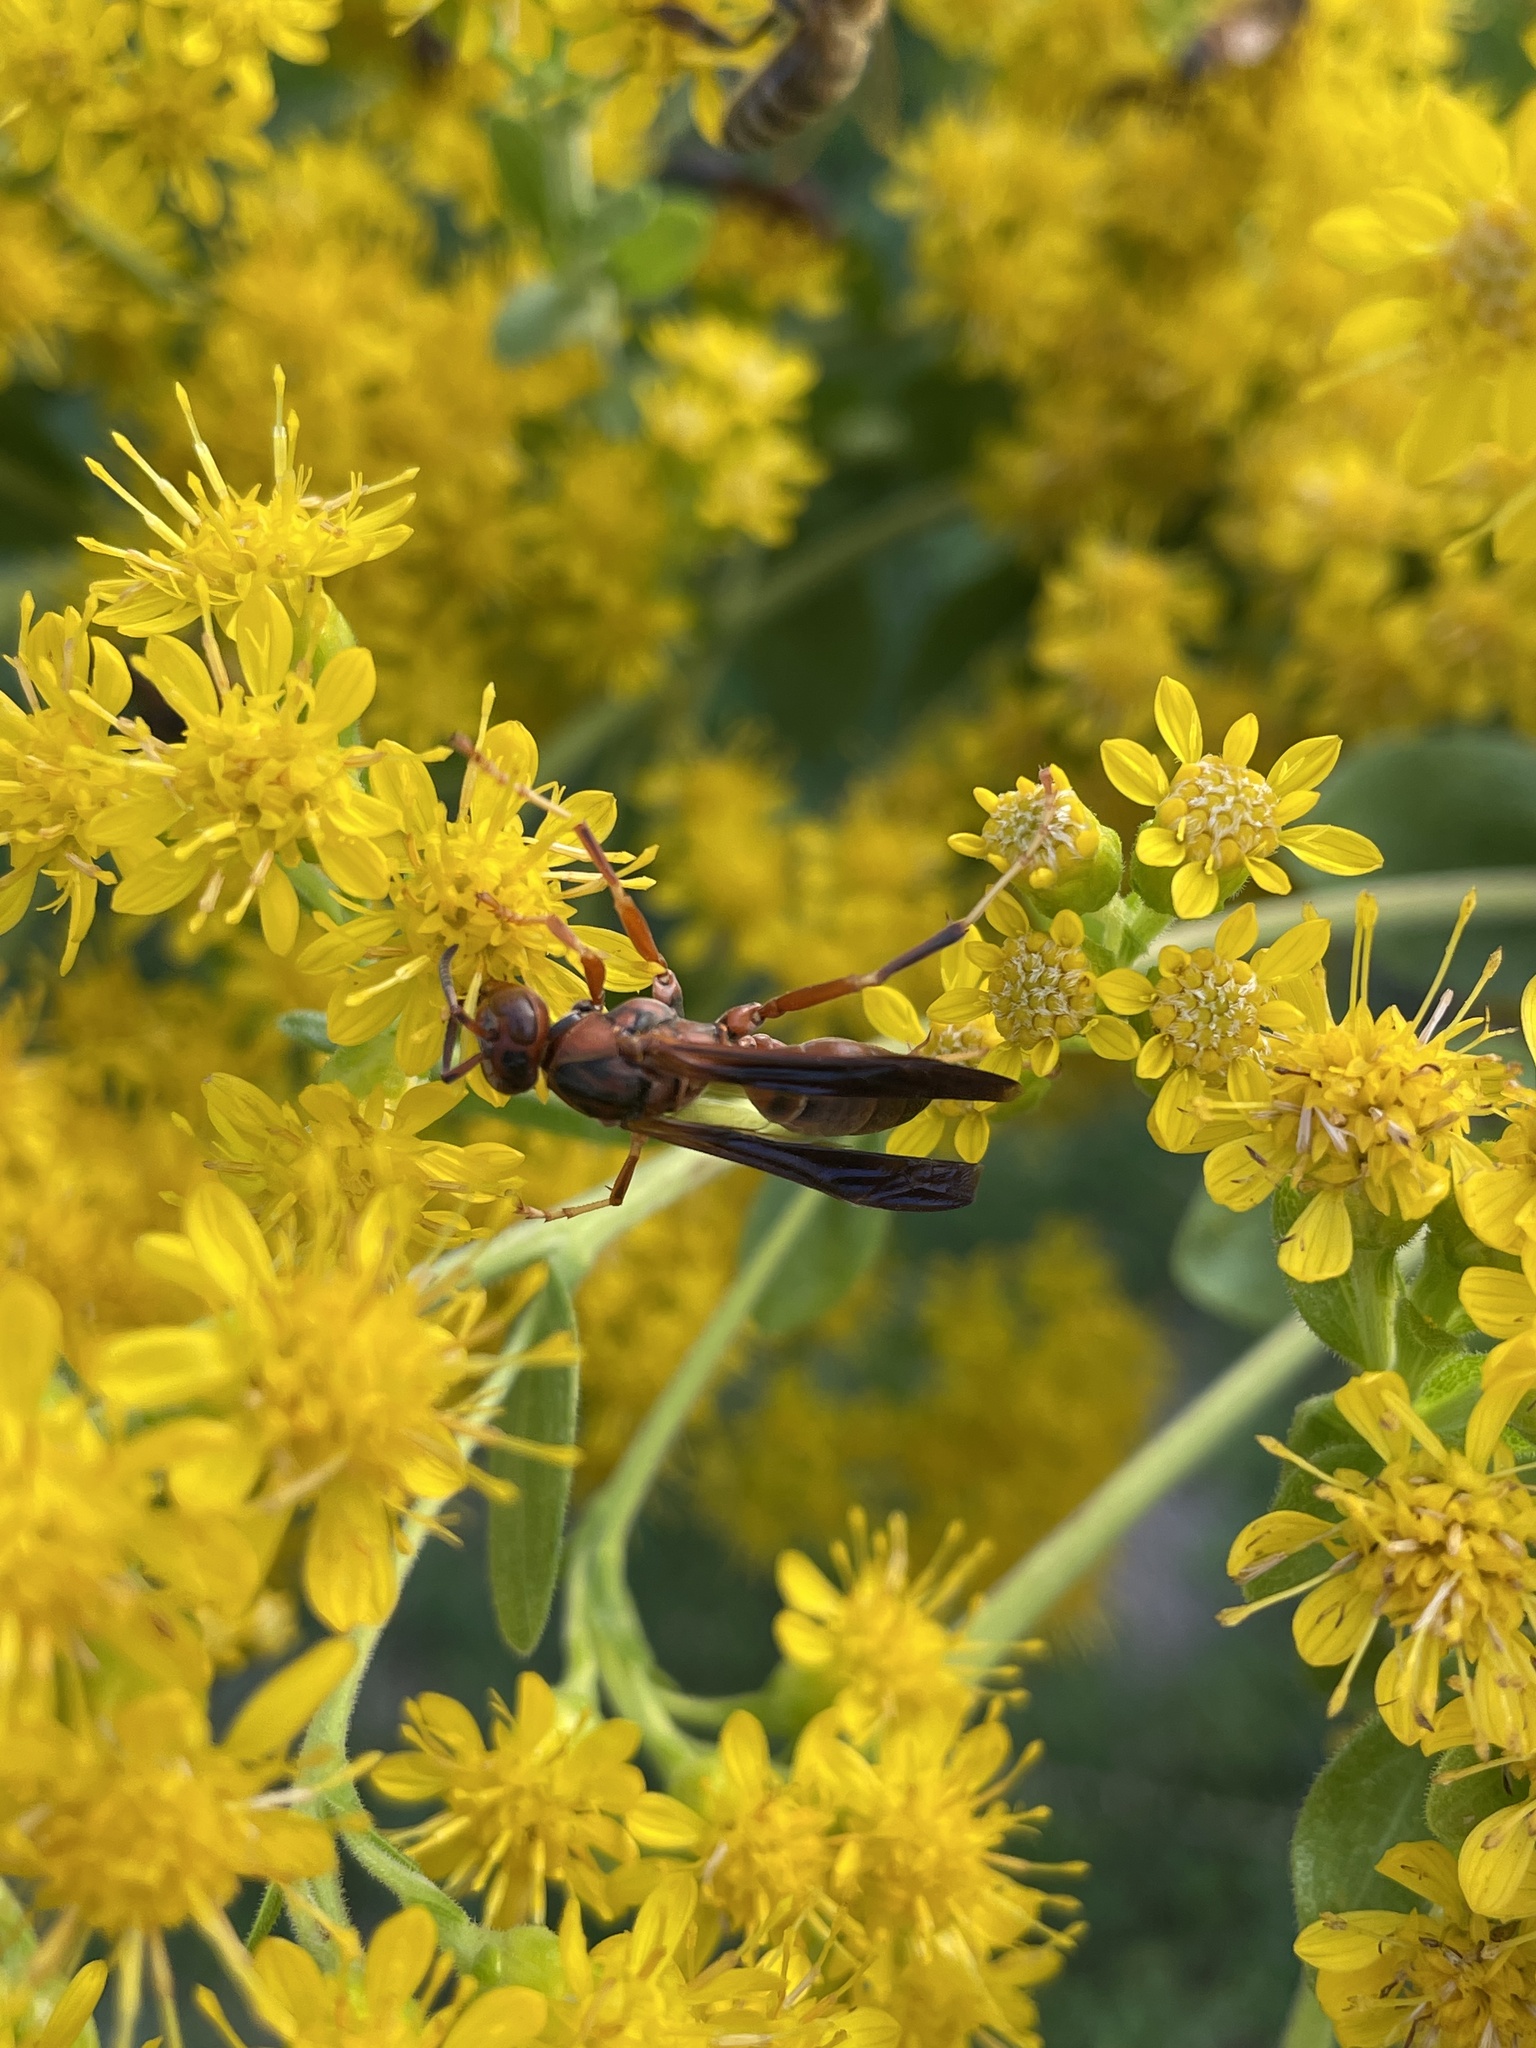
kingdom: Animalia
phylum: Arthropoda
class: Insecta
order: Hymenoptera
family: Eumenidae
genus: Polistes
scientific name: Polistes metricus
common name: Metric paper wasp
